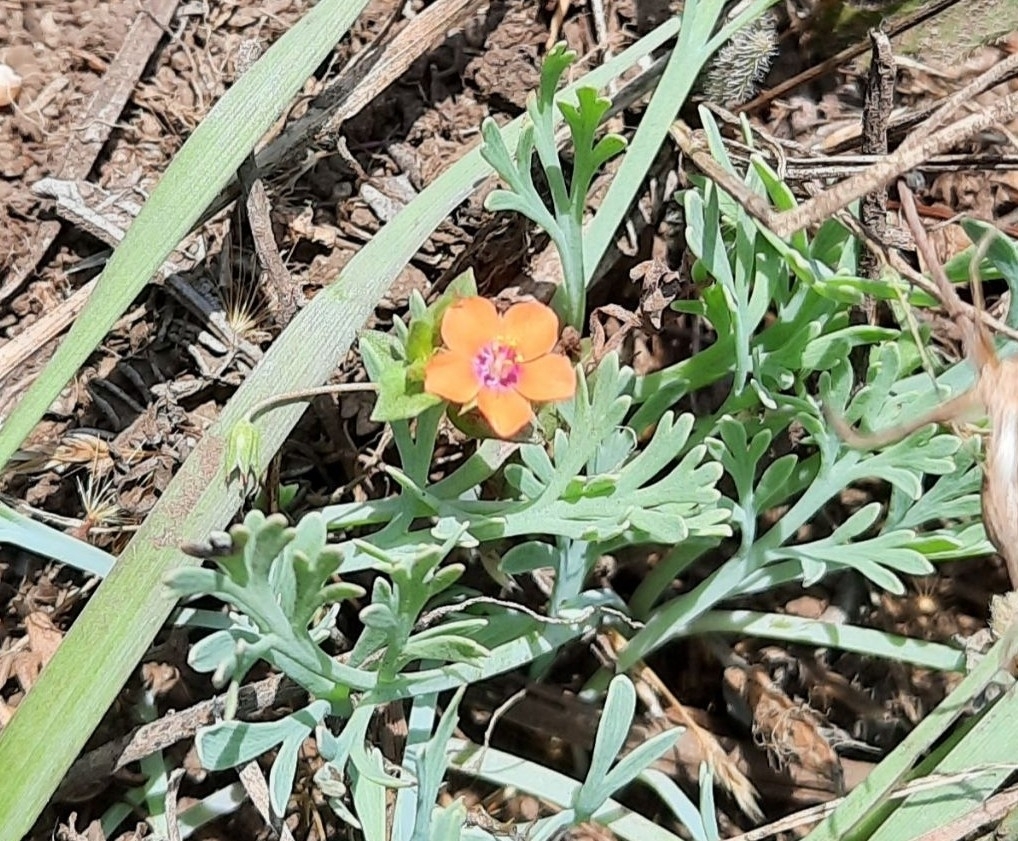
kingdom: Plantae
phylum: Tracheophyta
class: Magnoliopsida
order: Ericales
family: Primulaceae
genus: Lysimachia
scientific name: Lysimachia arvensis
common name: Scarlet pimpernel
